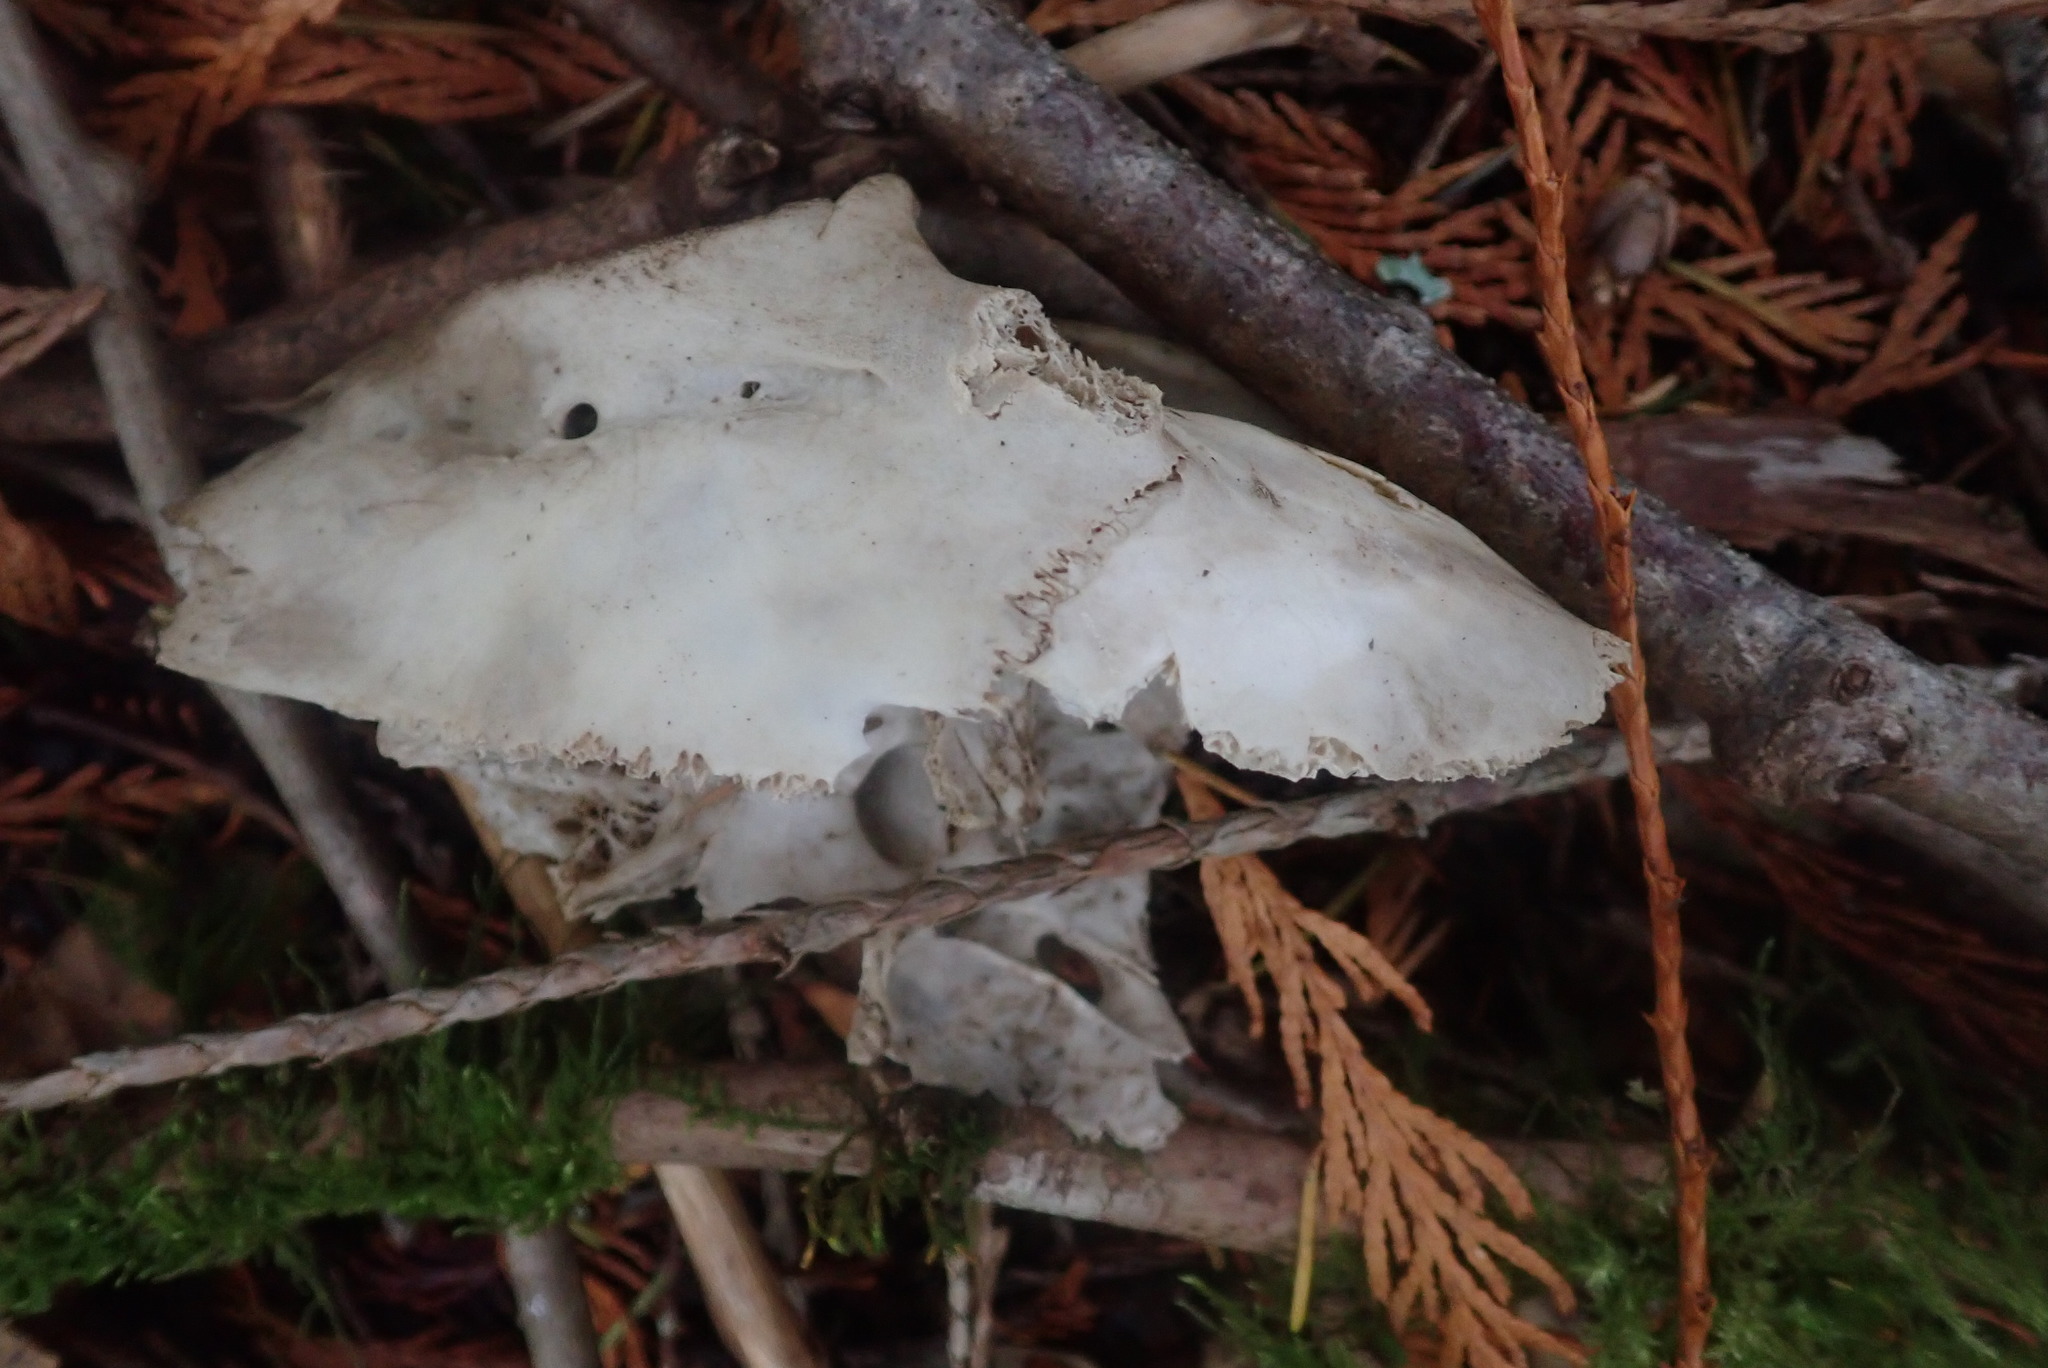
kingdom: Animalia
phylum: Chordata
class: Mammalia
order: Artiodactyla
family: Cervidae
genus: Odocoileus
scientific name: Odocoileus hemionus
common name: Mule deer
